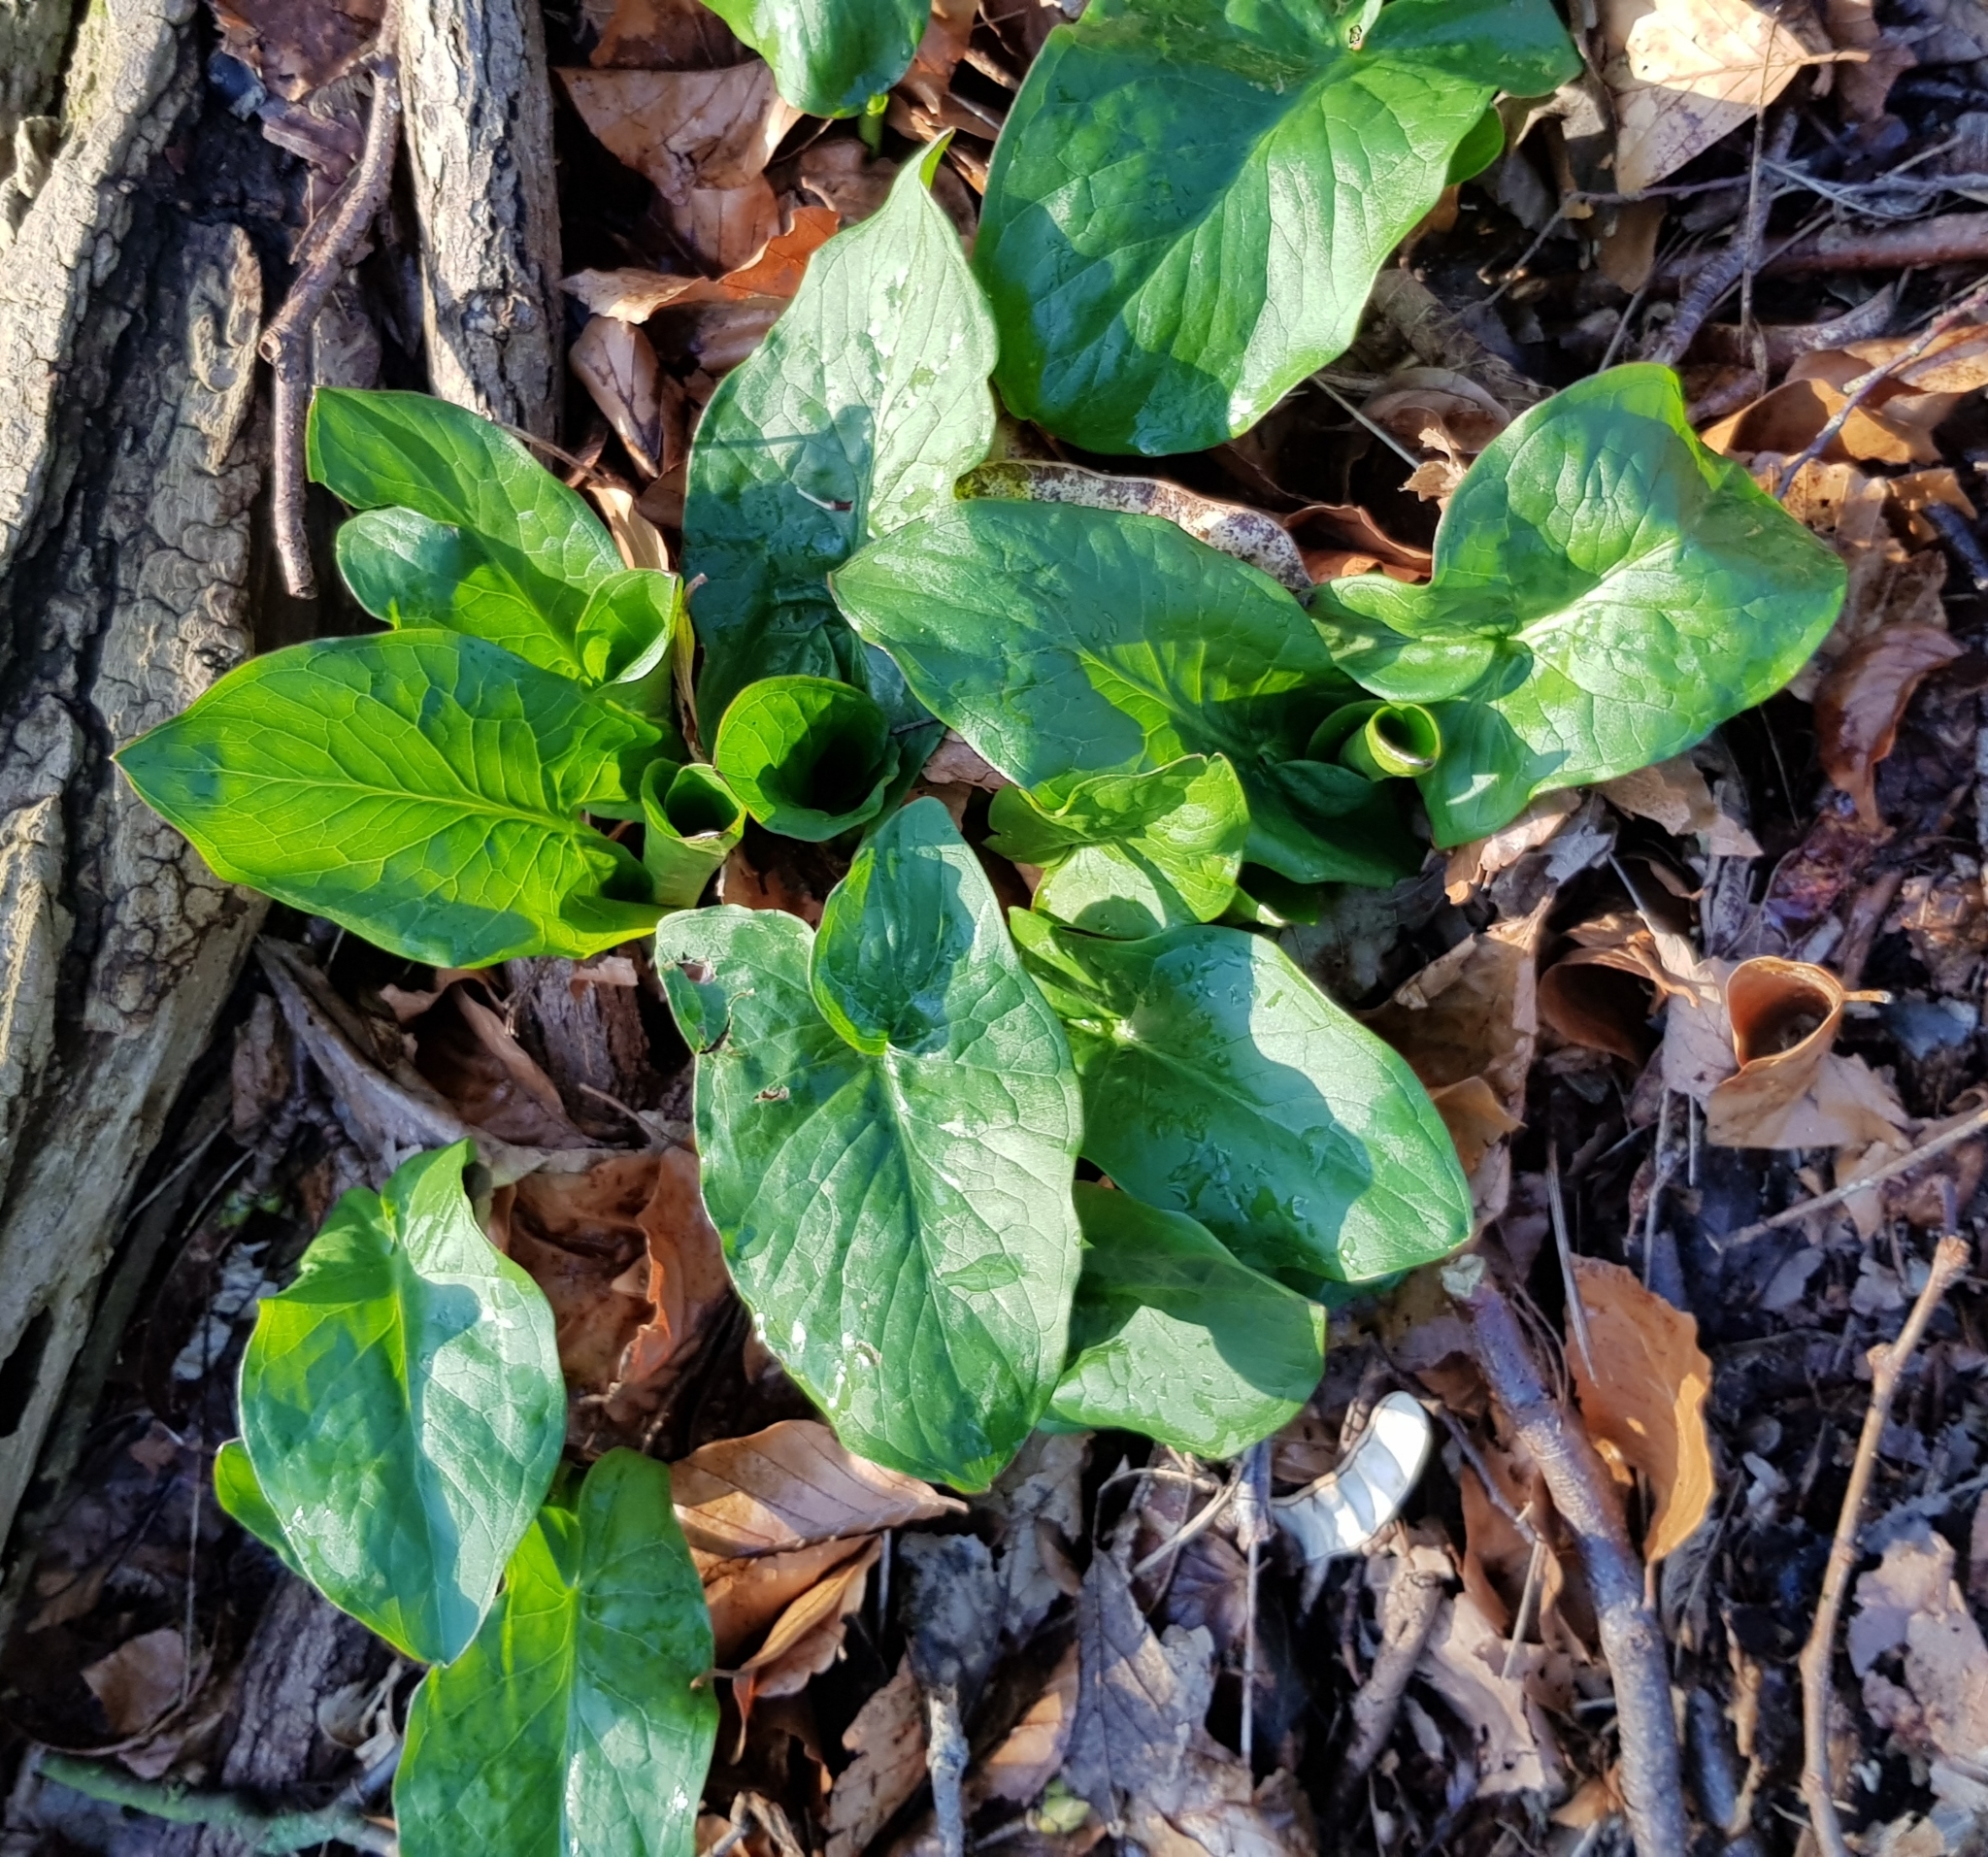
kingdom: Plantae
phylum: Tracheophyta
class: Liliopsida
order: Alismatales
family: Araceae
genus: Arum
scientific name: Arum maculatum
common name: Lords-and-ladies
